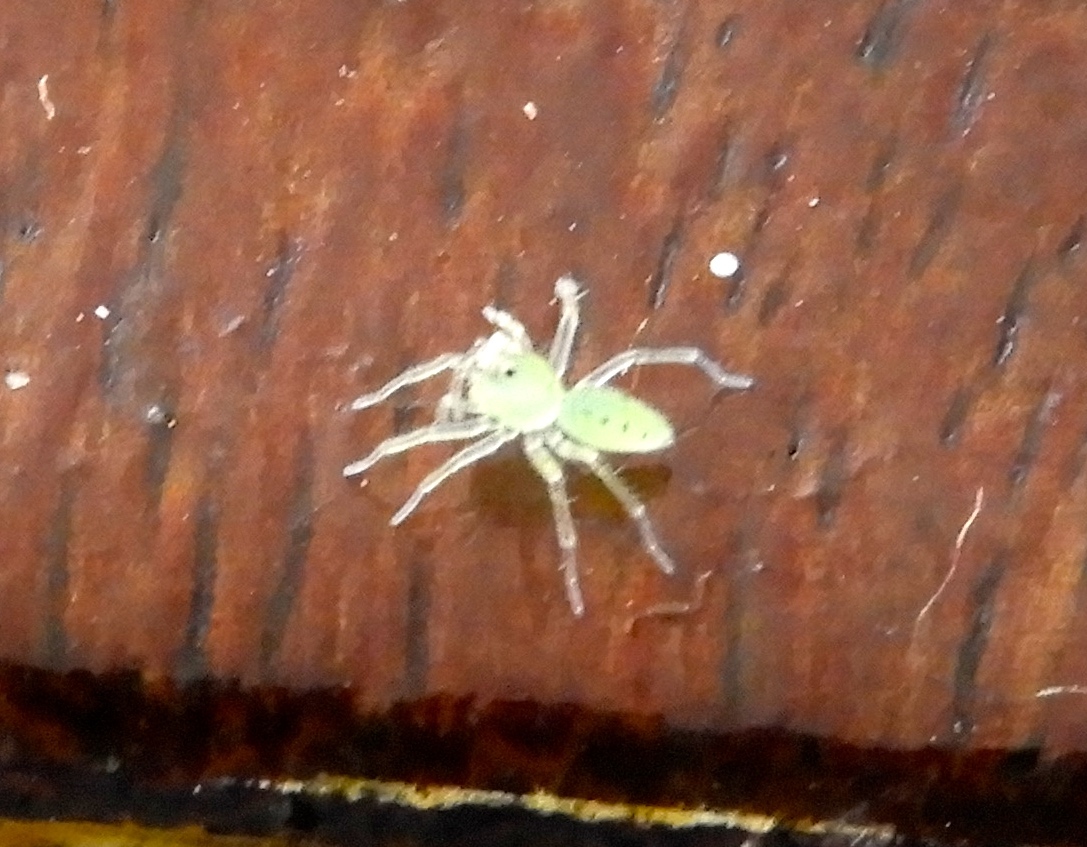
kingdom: Animalia
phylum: Arthropoda
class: Arachnida
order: Araneae
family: Salticidae
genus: Lyssomanes
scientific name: Lyssomanes
